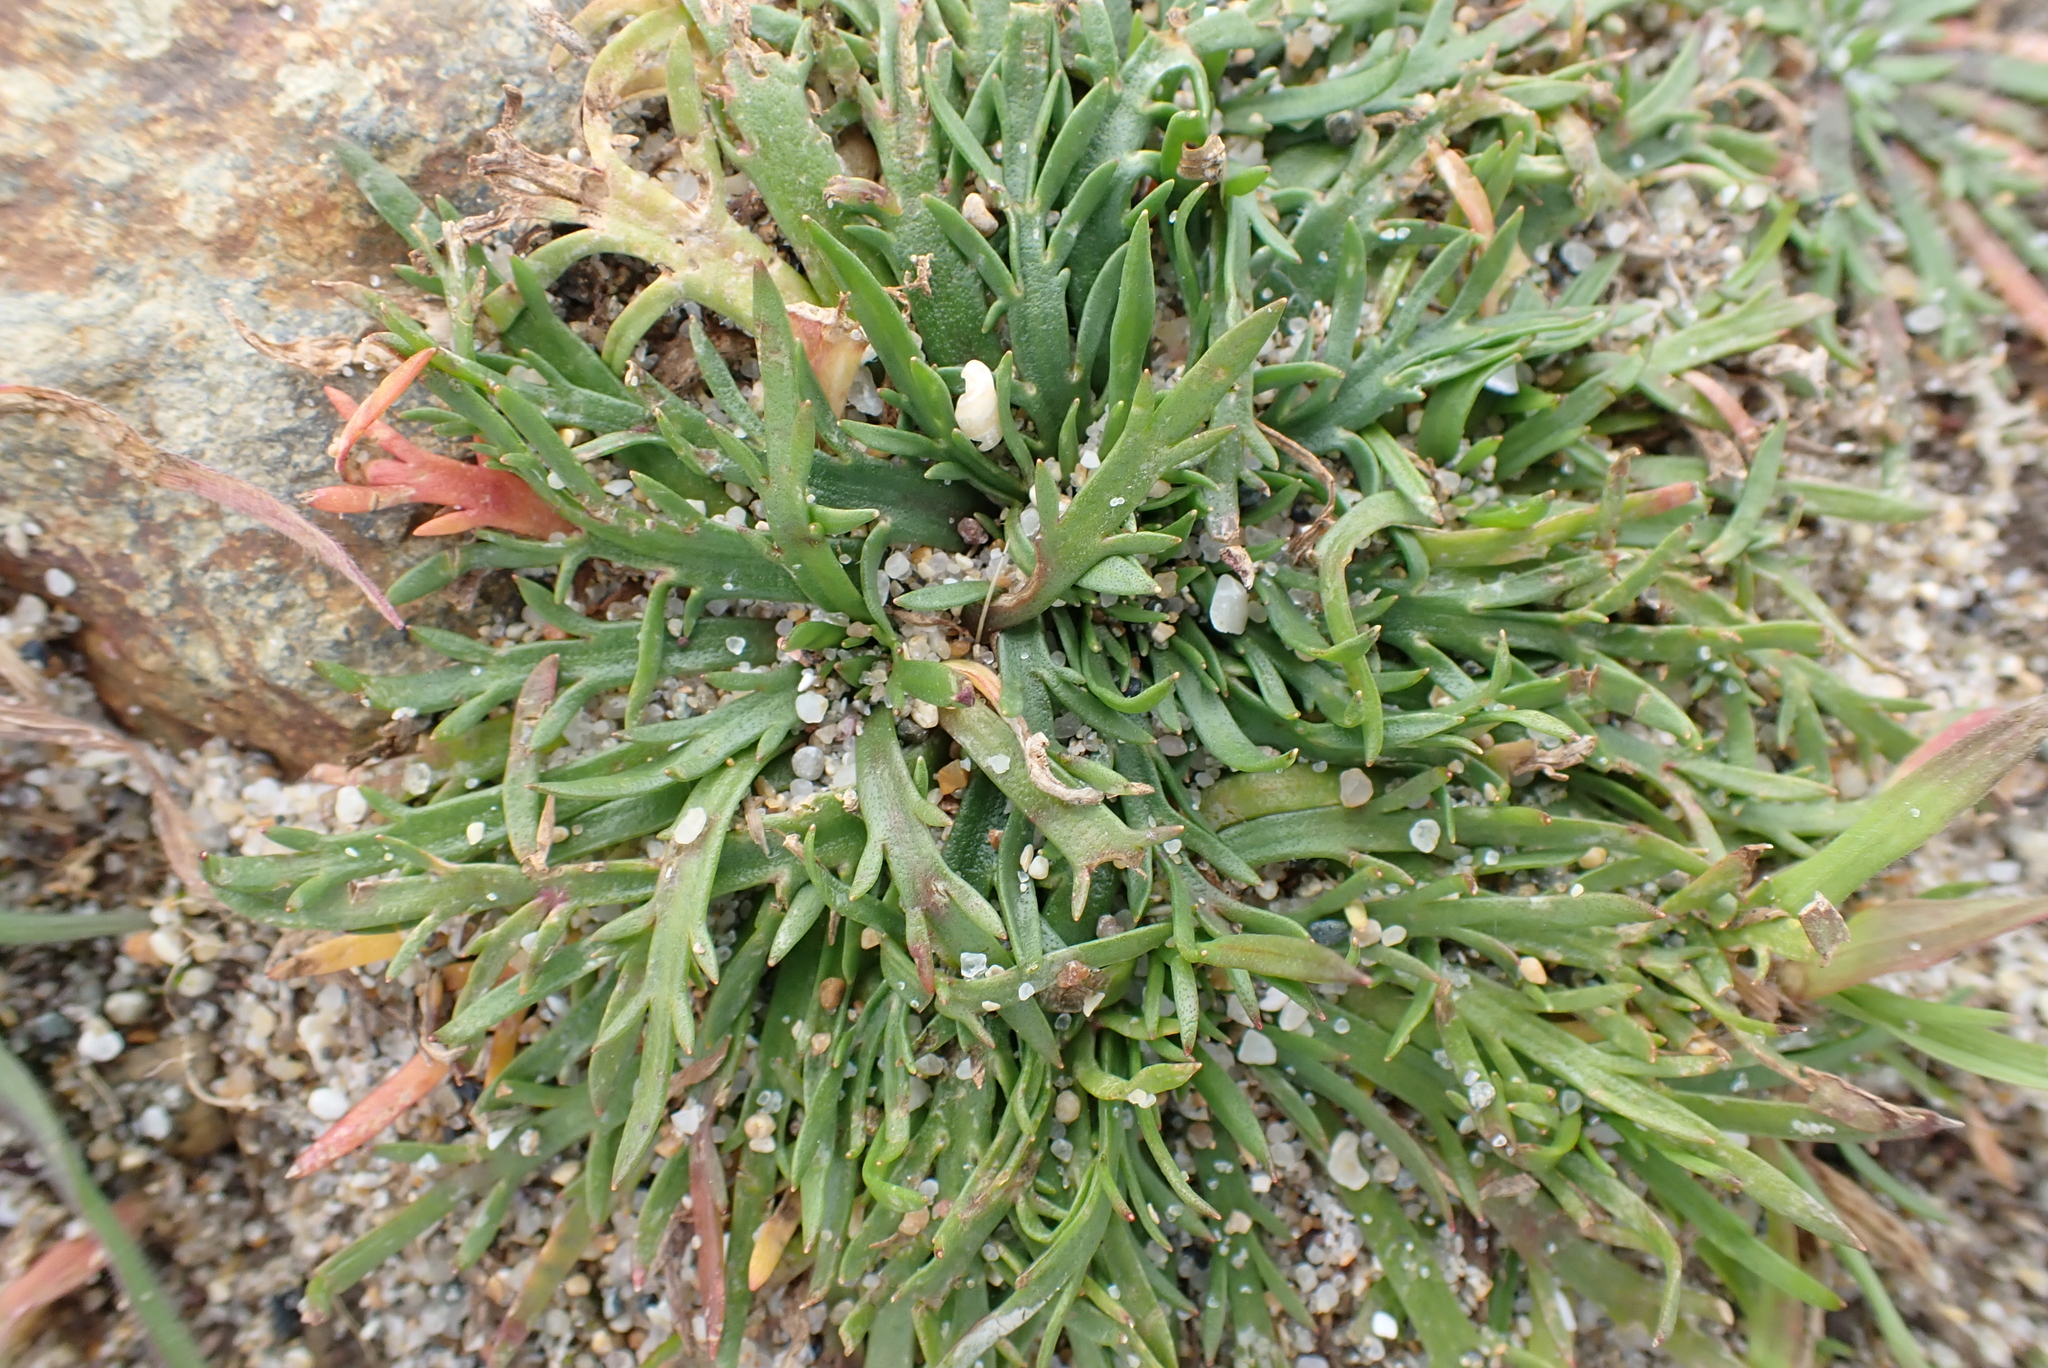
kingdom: Plantae
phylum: Tracheophyta
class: Magnoliopsida
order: Lamiales
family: Plantaginaceae
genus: Plantago
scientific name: Plantago coronopus
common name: Buck's-horn plantain
